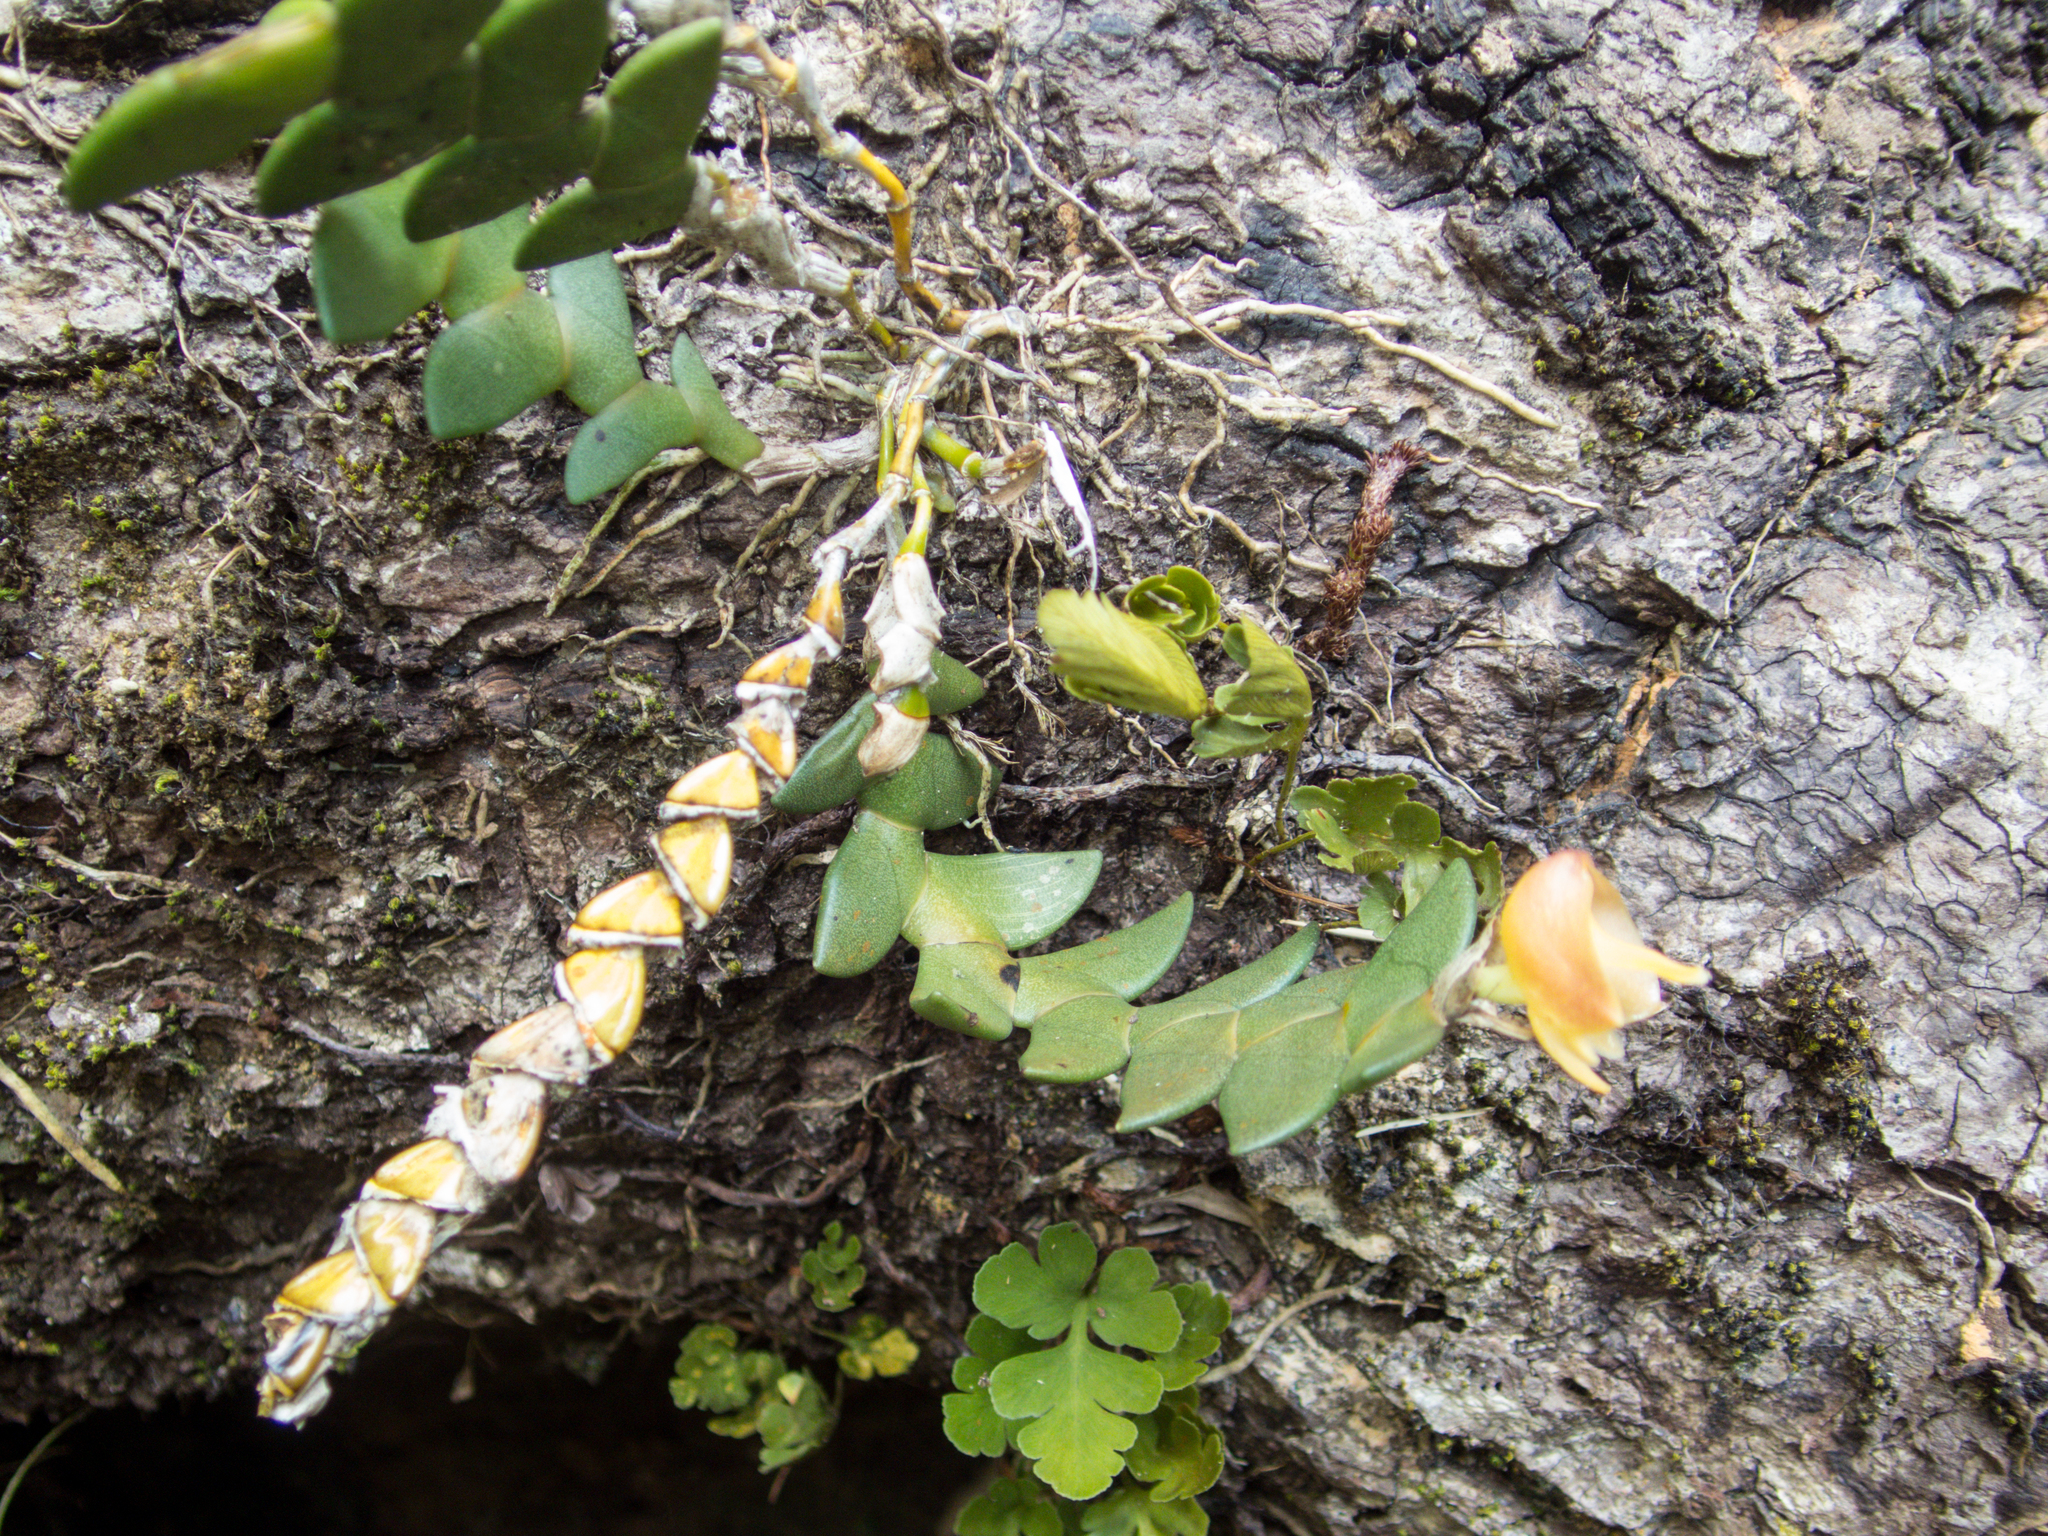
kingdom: Plantae
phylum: Tracheophyta
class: Liliopsida
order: Asparagales
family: Orchidaceae
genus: Dendrobium
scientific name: Dendrobium leonis
